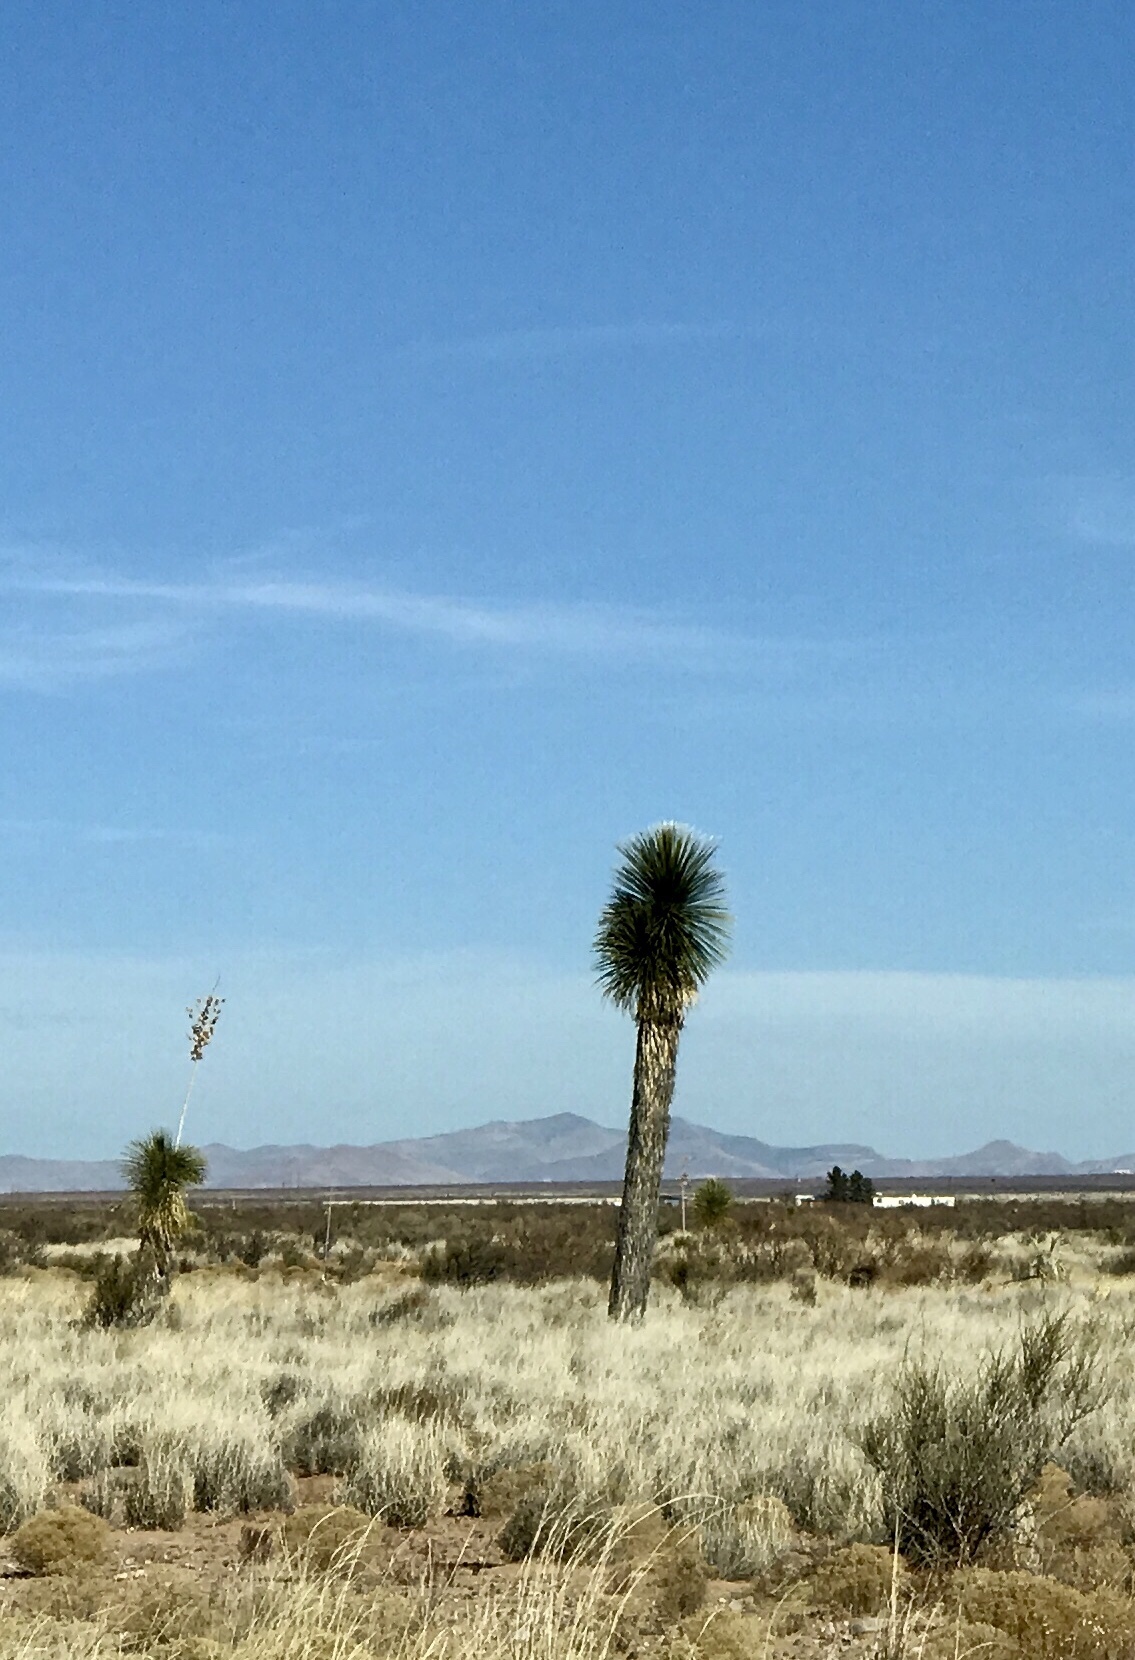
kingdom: Plantae
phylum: Tracheophyta
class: Liliopsida
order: Asparagales
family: Asparagaceae
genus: Yucca
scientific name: Yucca elata
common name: Palmella
